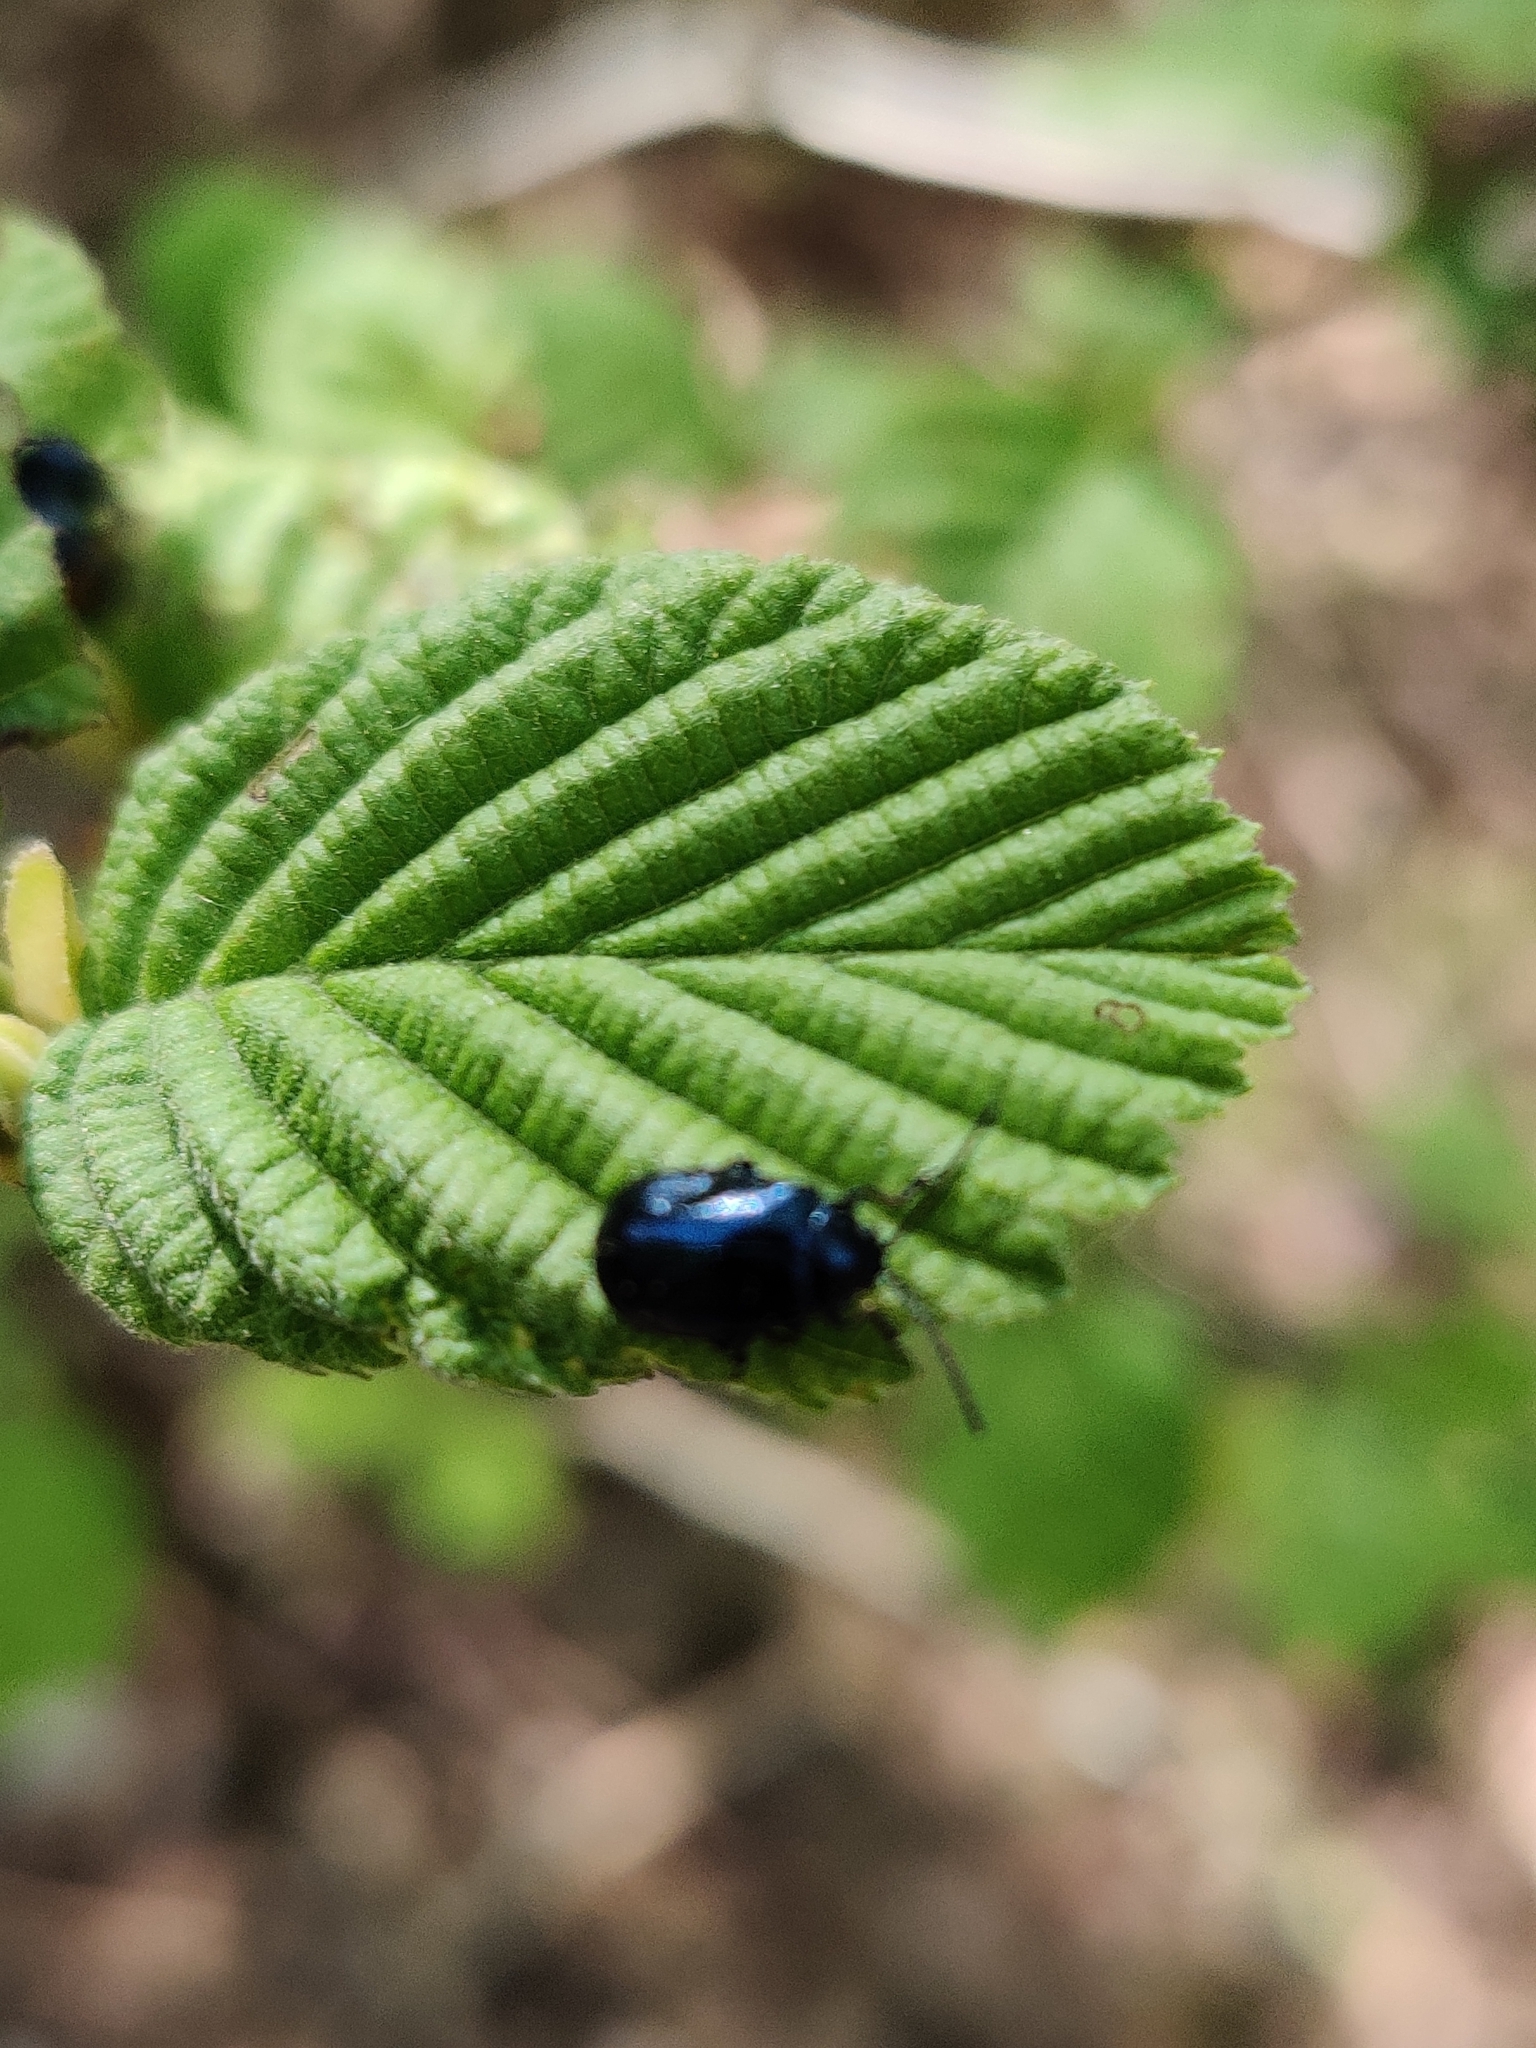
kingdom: Animalia
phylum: Arthropoda
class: Insecta
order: Coleoptera
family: Chrysomelidae
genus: Agelastica
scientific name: Agelastica alni
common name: Alder leaf beetle
